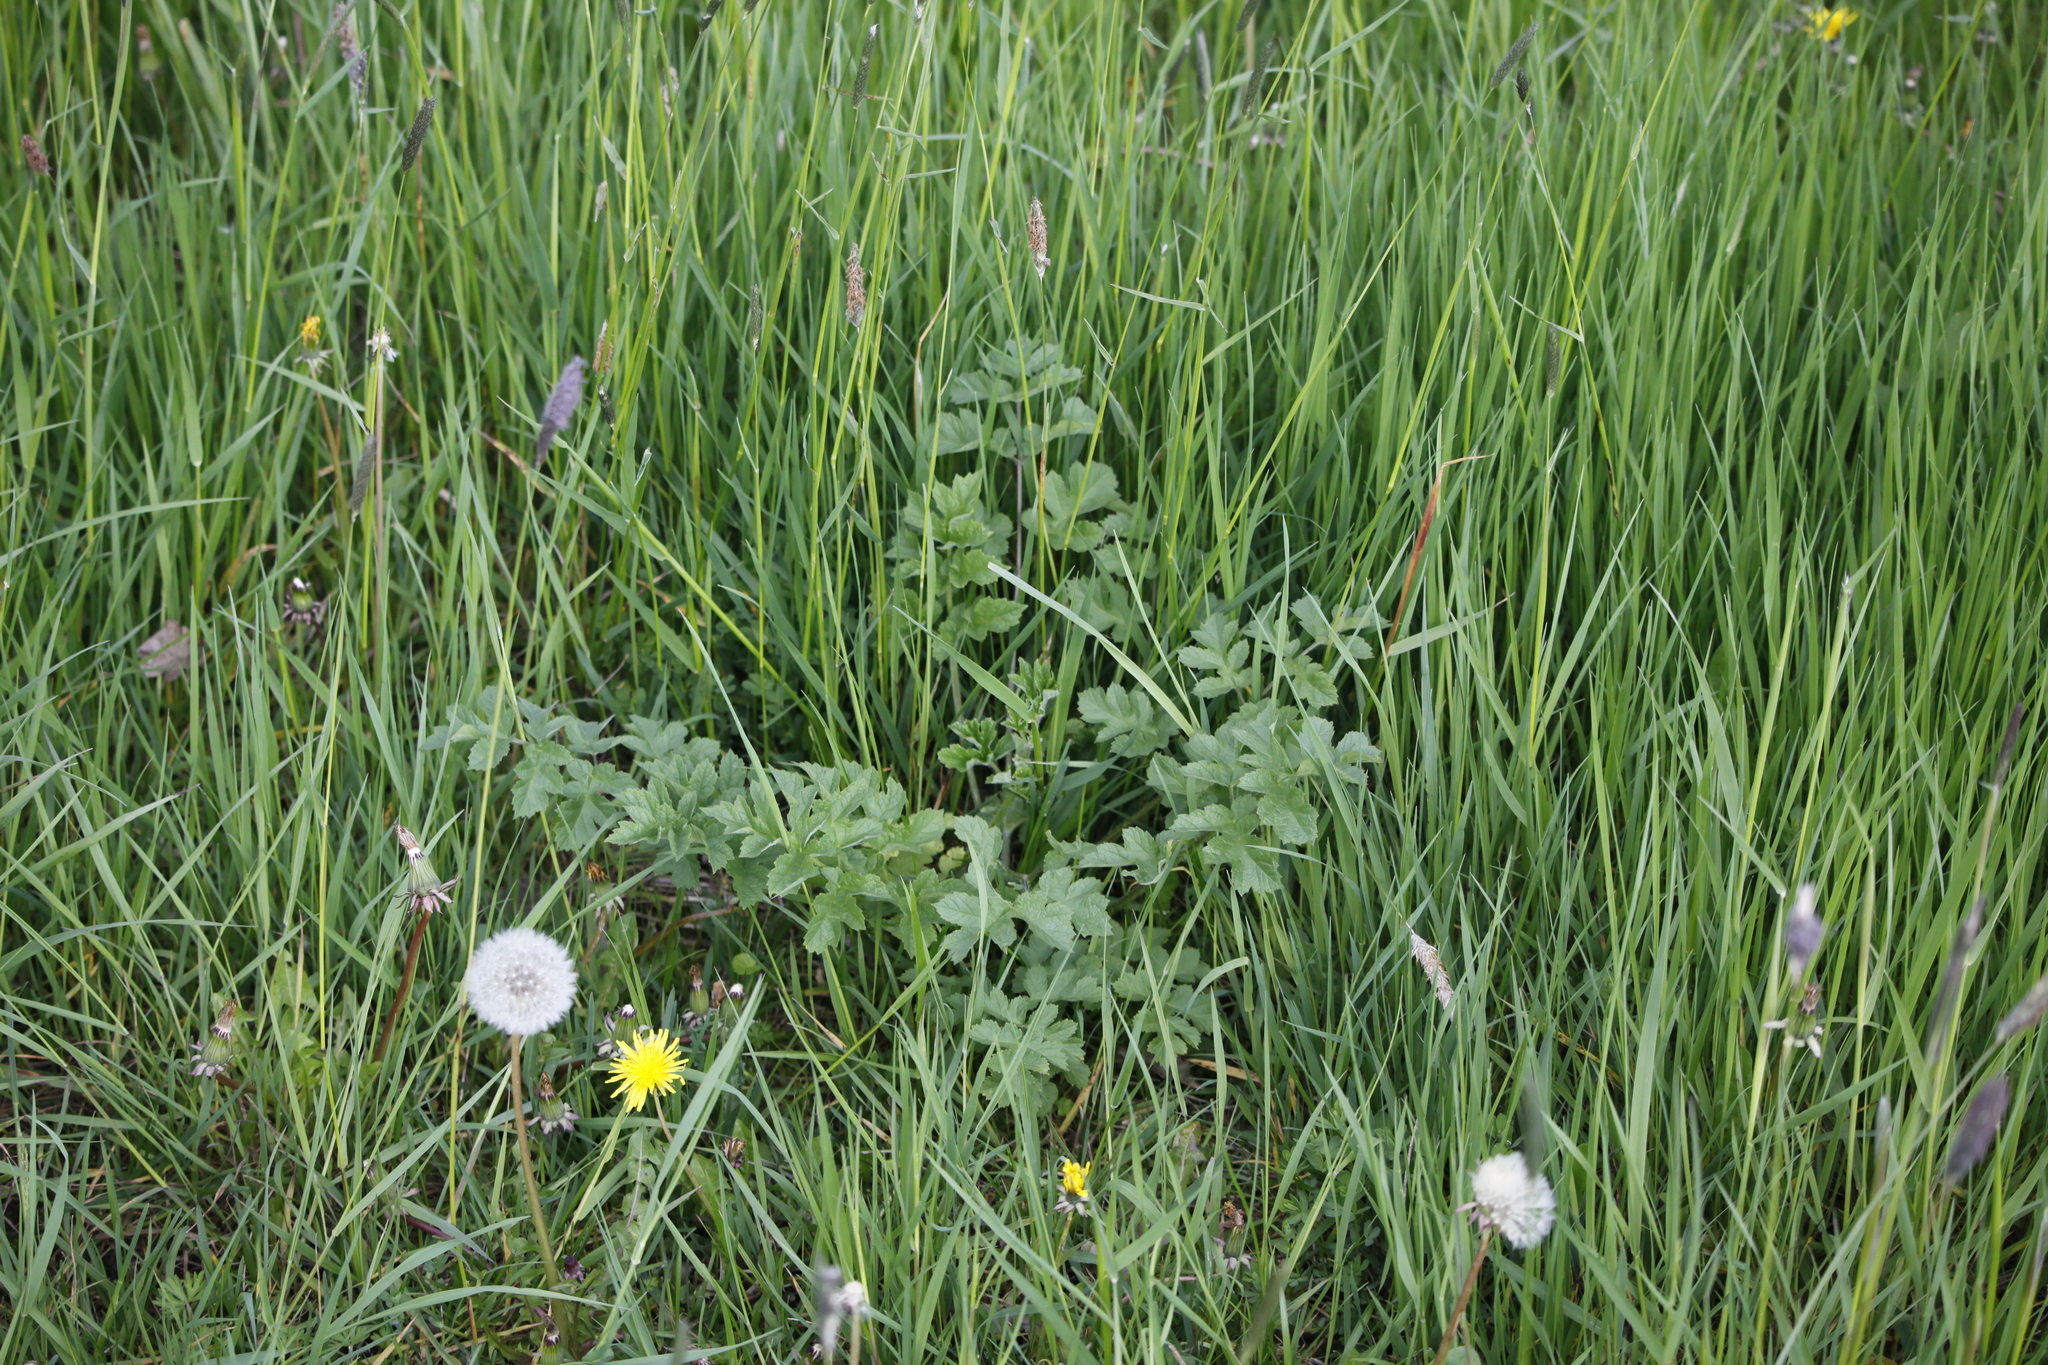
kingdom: Plantae
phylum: Tracheophyta
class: Magnoliopsida
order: Apiales
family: Apiaceae
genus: Heracleum
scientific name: Heracleum sphondylium
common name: Hogweed
